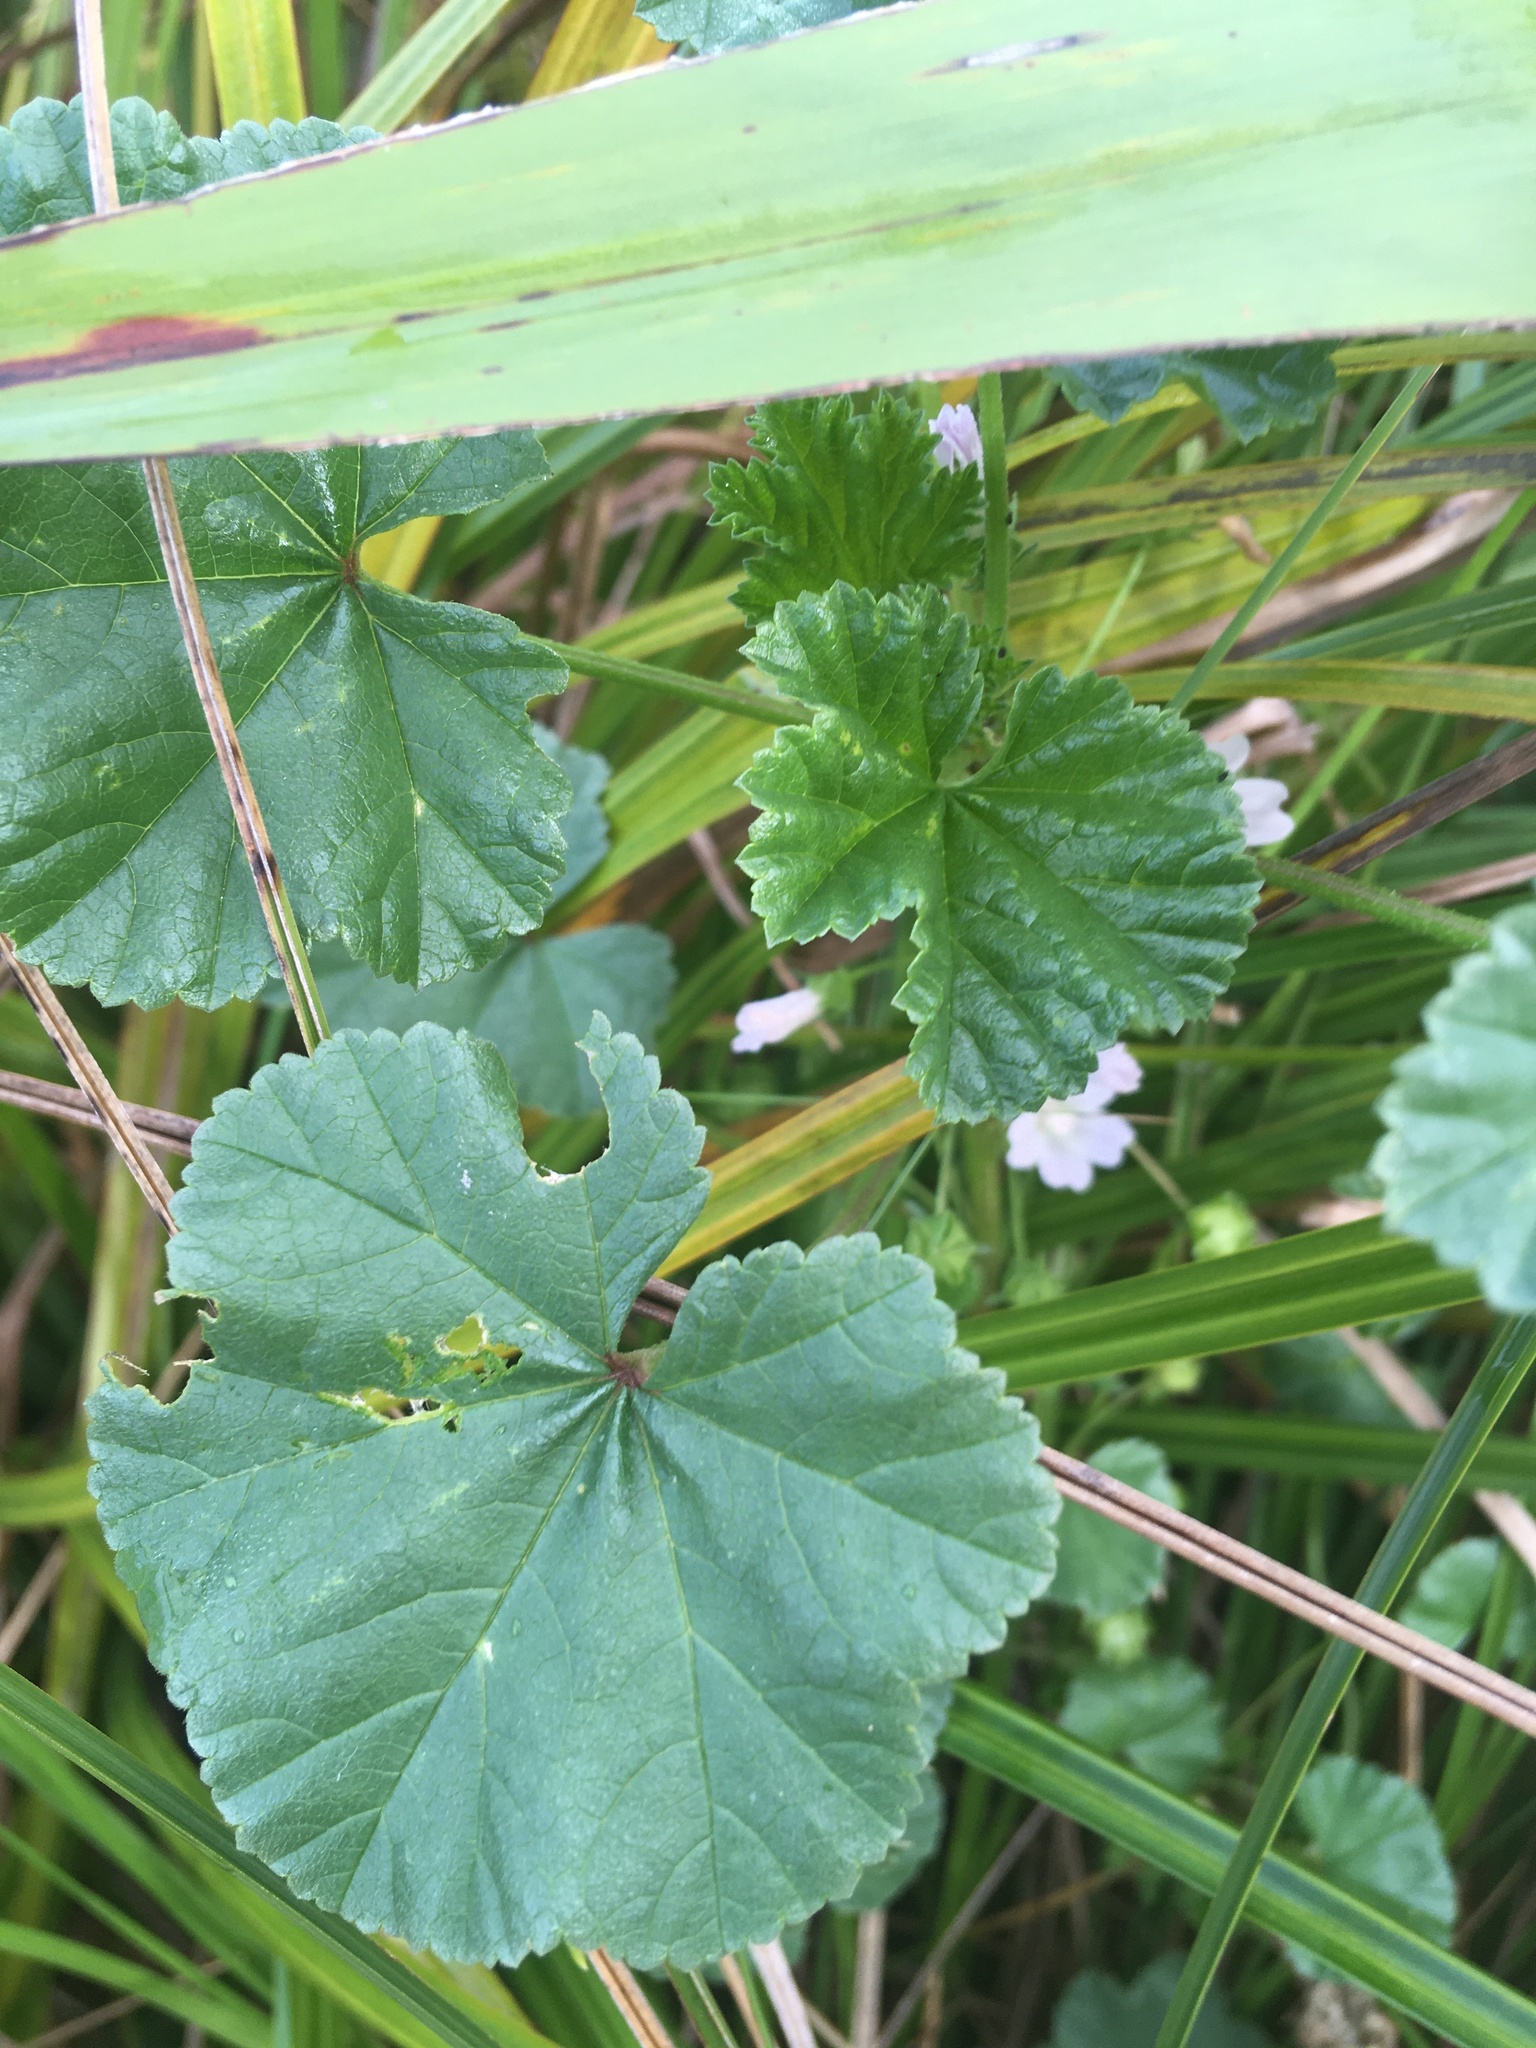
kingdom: Plantae
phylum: Tracheophyta
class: Magnoliopsida
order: Malvales
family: Malvaceae
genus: Malva
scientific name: Malva neglecta
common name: Common mallow
